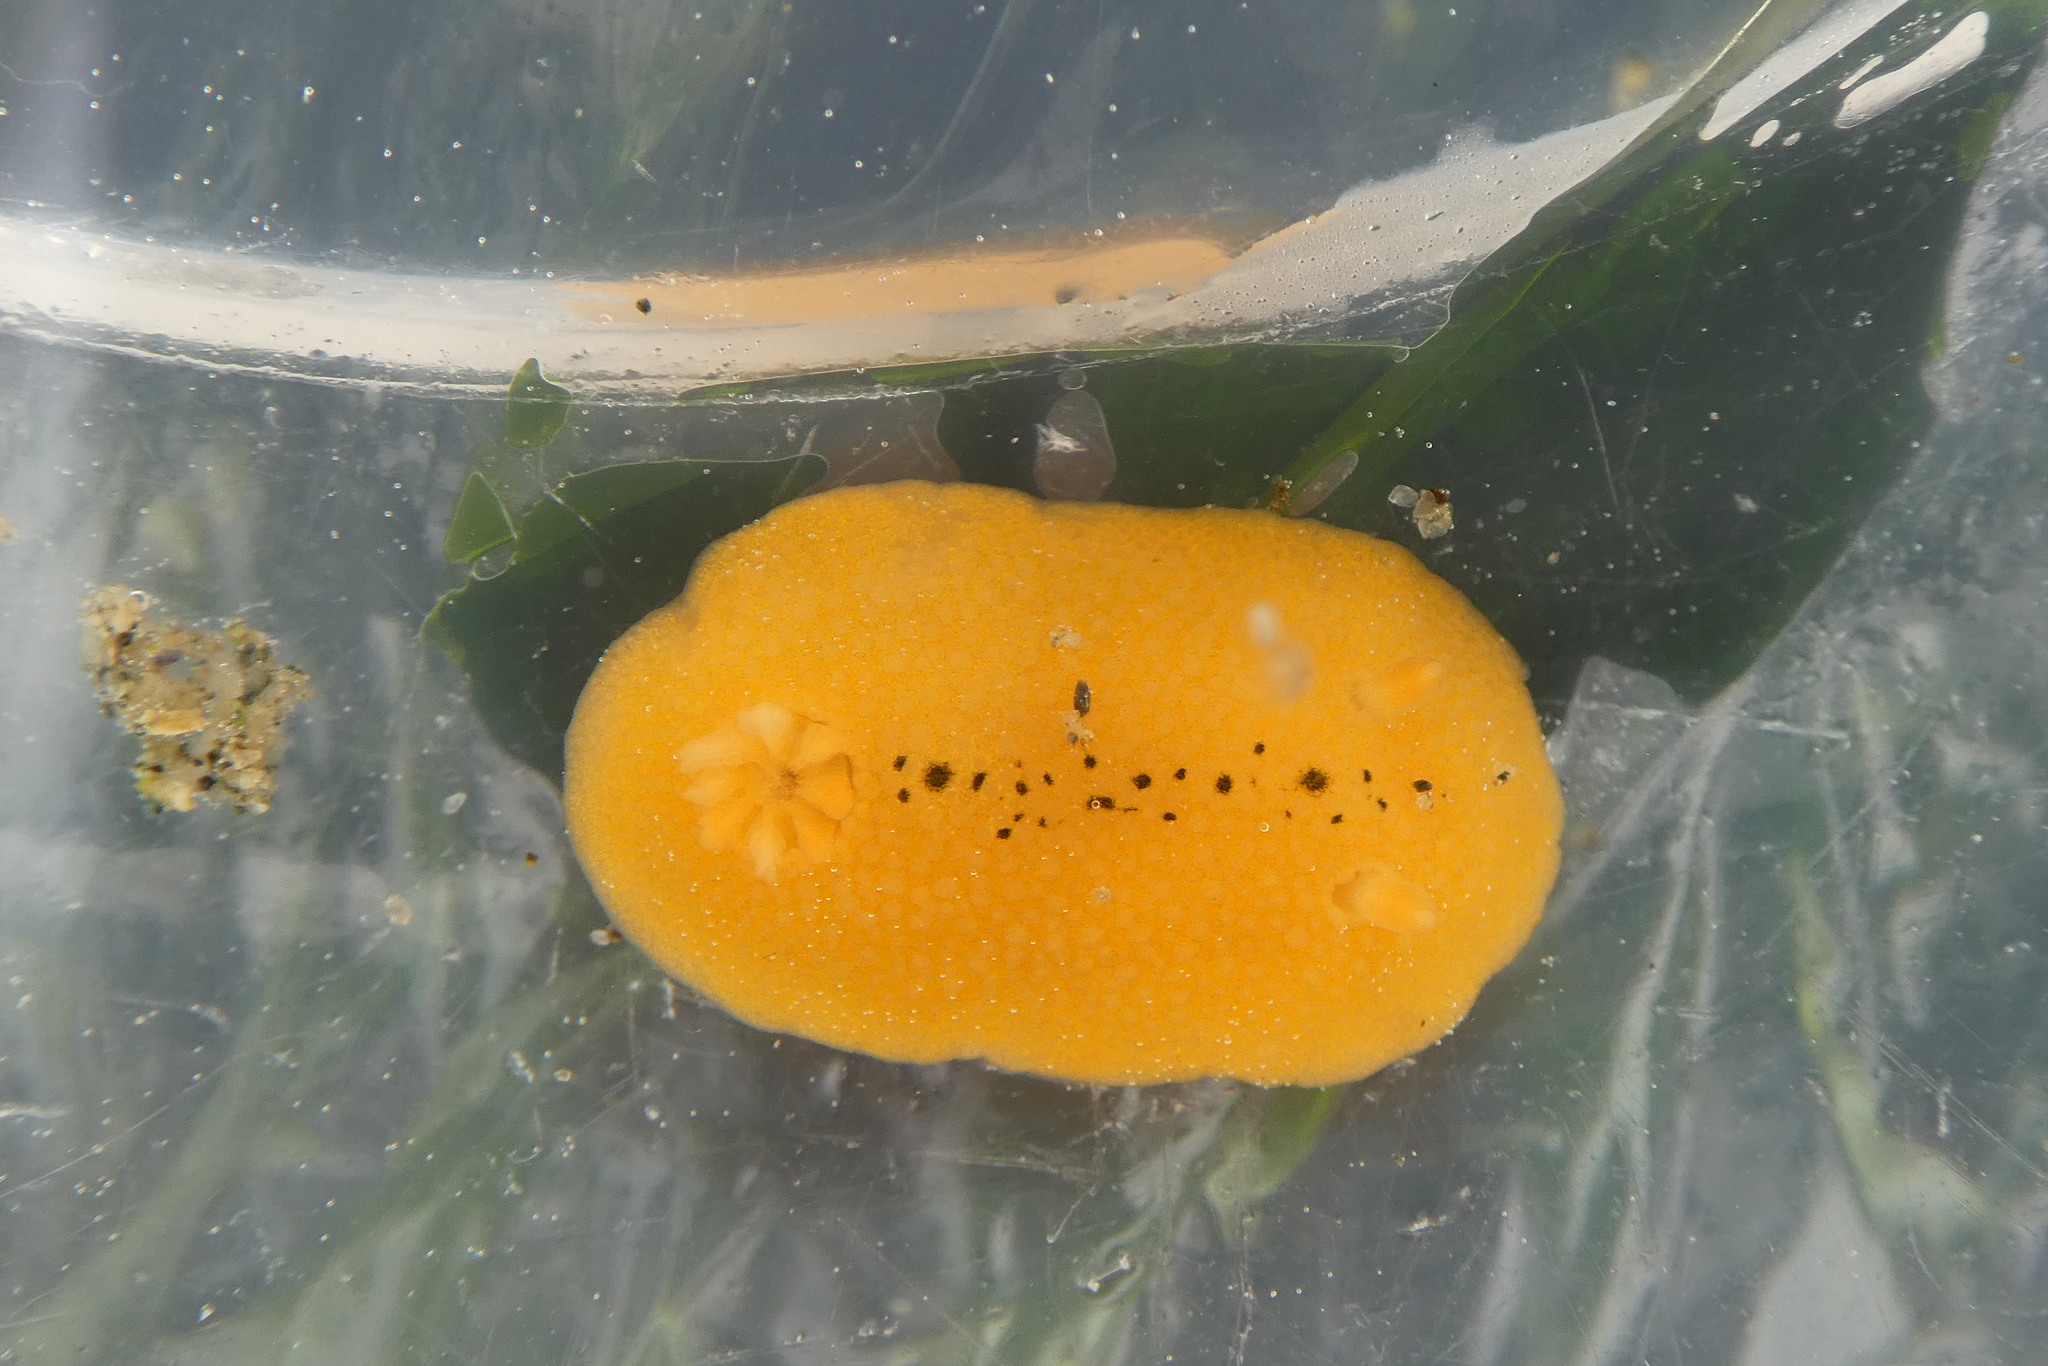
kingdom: Animalia
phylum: Mollusca
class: Gastropoda
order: Nudibranchia
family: Cadlinidae
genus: Aldisa
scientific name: Aldisa cooperi
